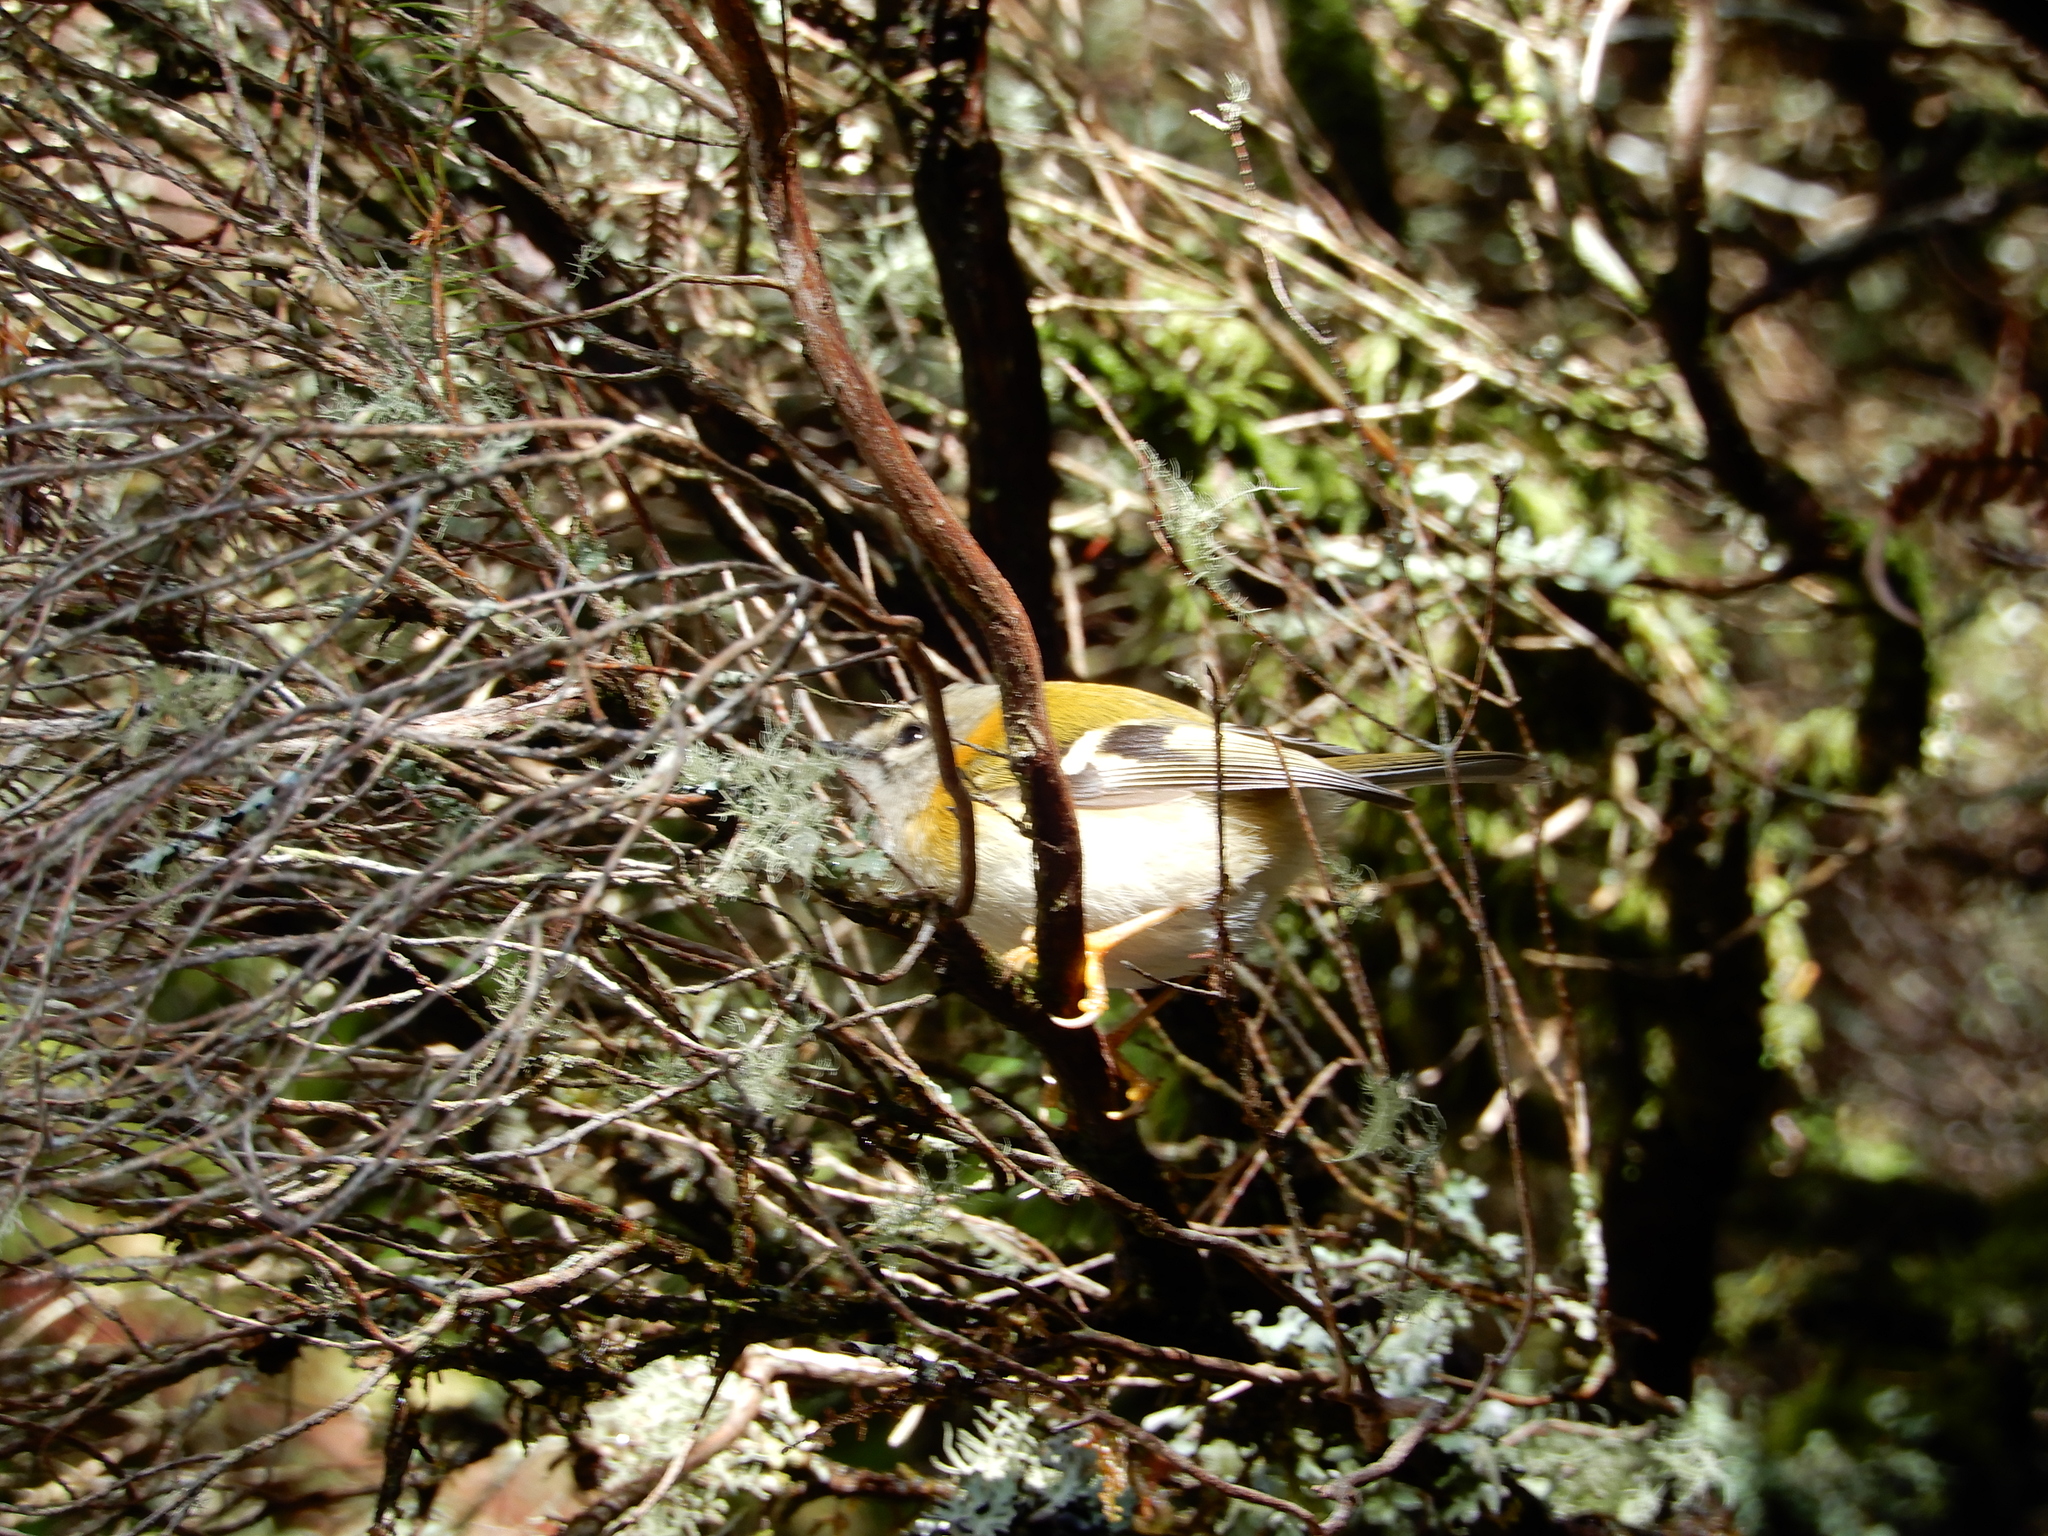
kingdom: Animalia
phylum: Chordata
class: Aves
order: Passeriformes
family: Regulidae
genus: Regulus
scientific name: Regulus madeirensis
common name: Madeira firecrest
